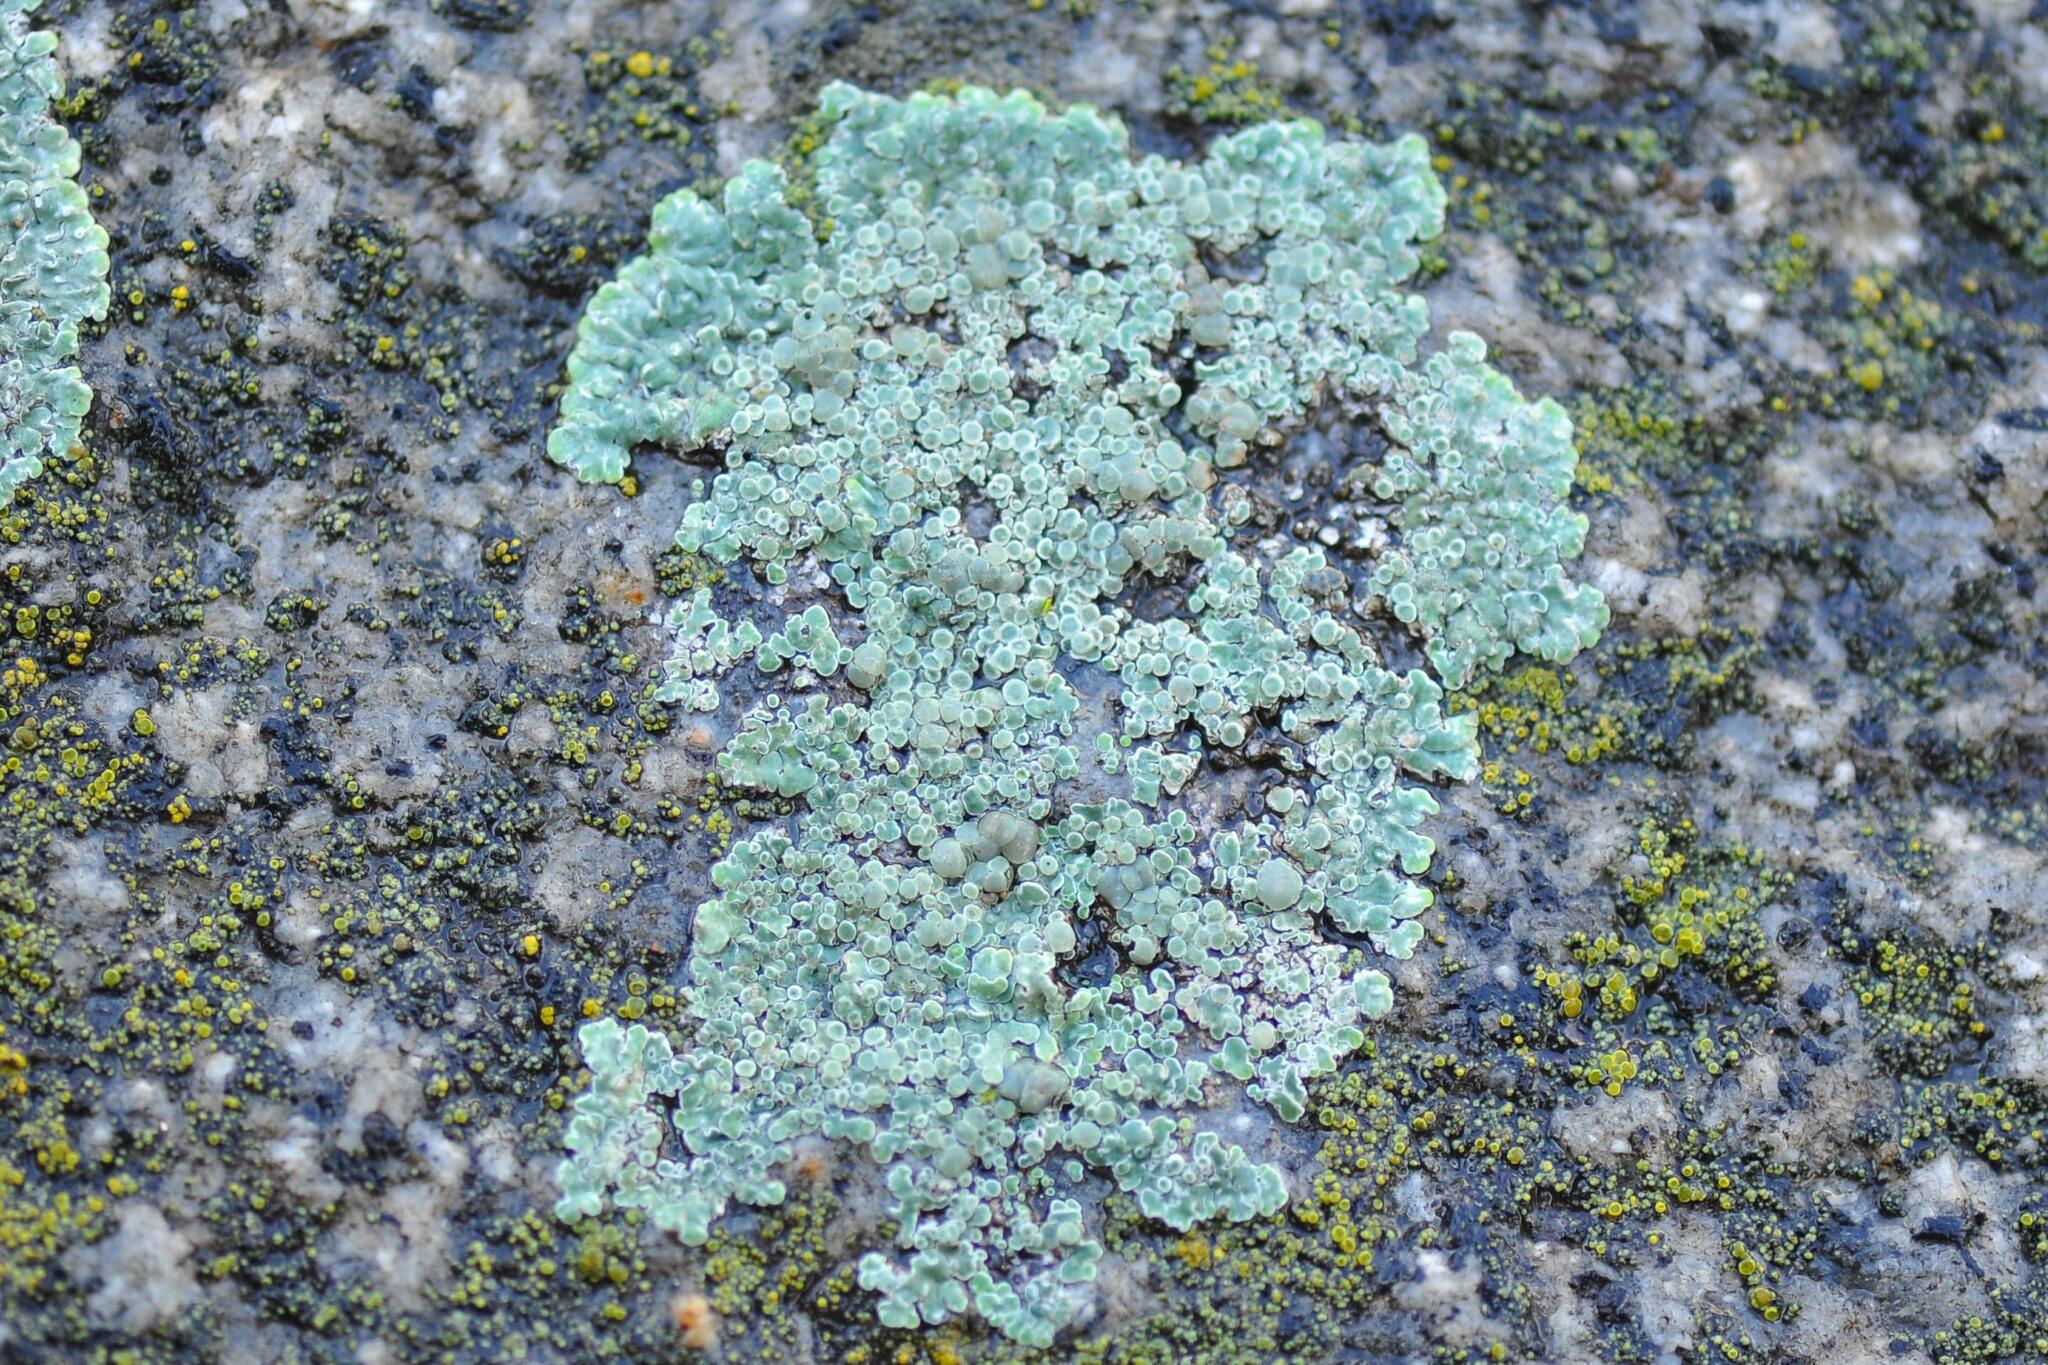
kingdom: Fungi
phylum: Ascomycota
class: Lecanoromycetes
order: Lecanorales
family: Lecanoraceae
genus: Protoparmeliopsis
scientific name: Protoparmeliopsis muralis
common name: Stonewall rim lichen
